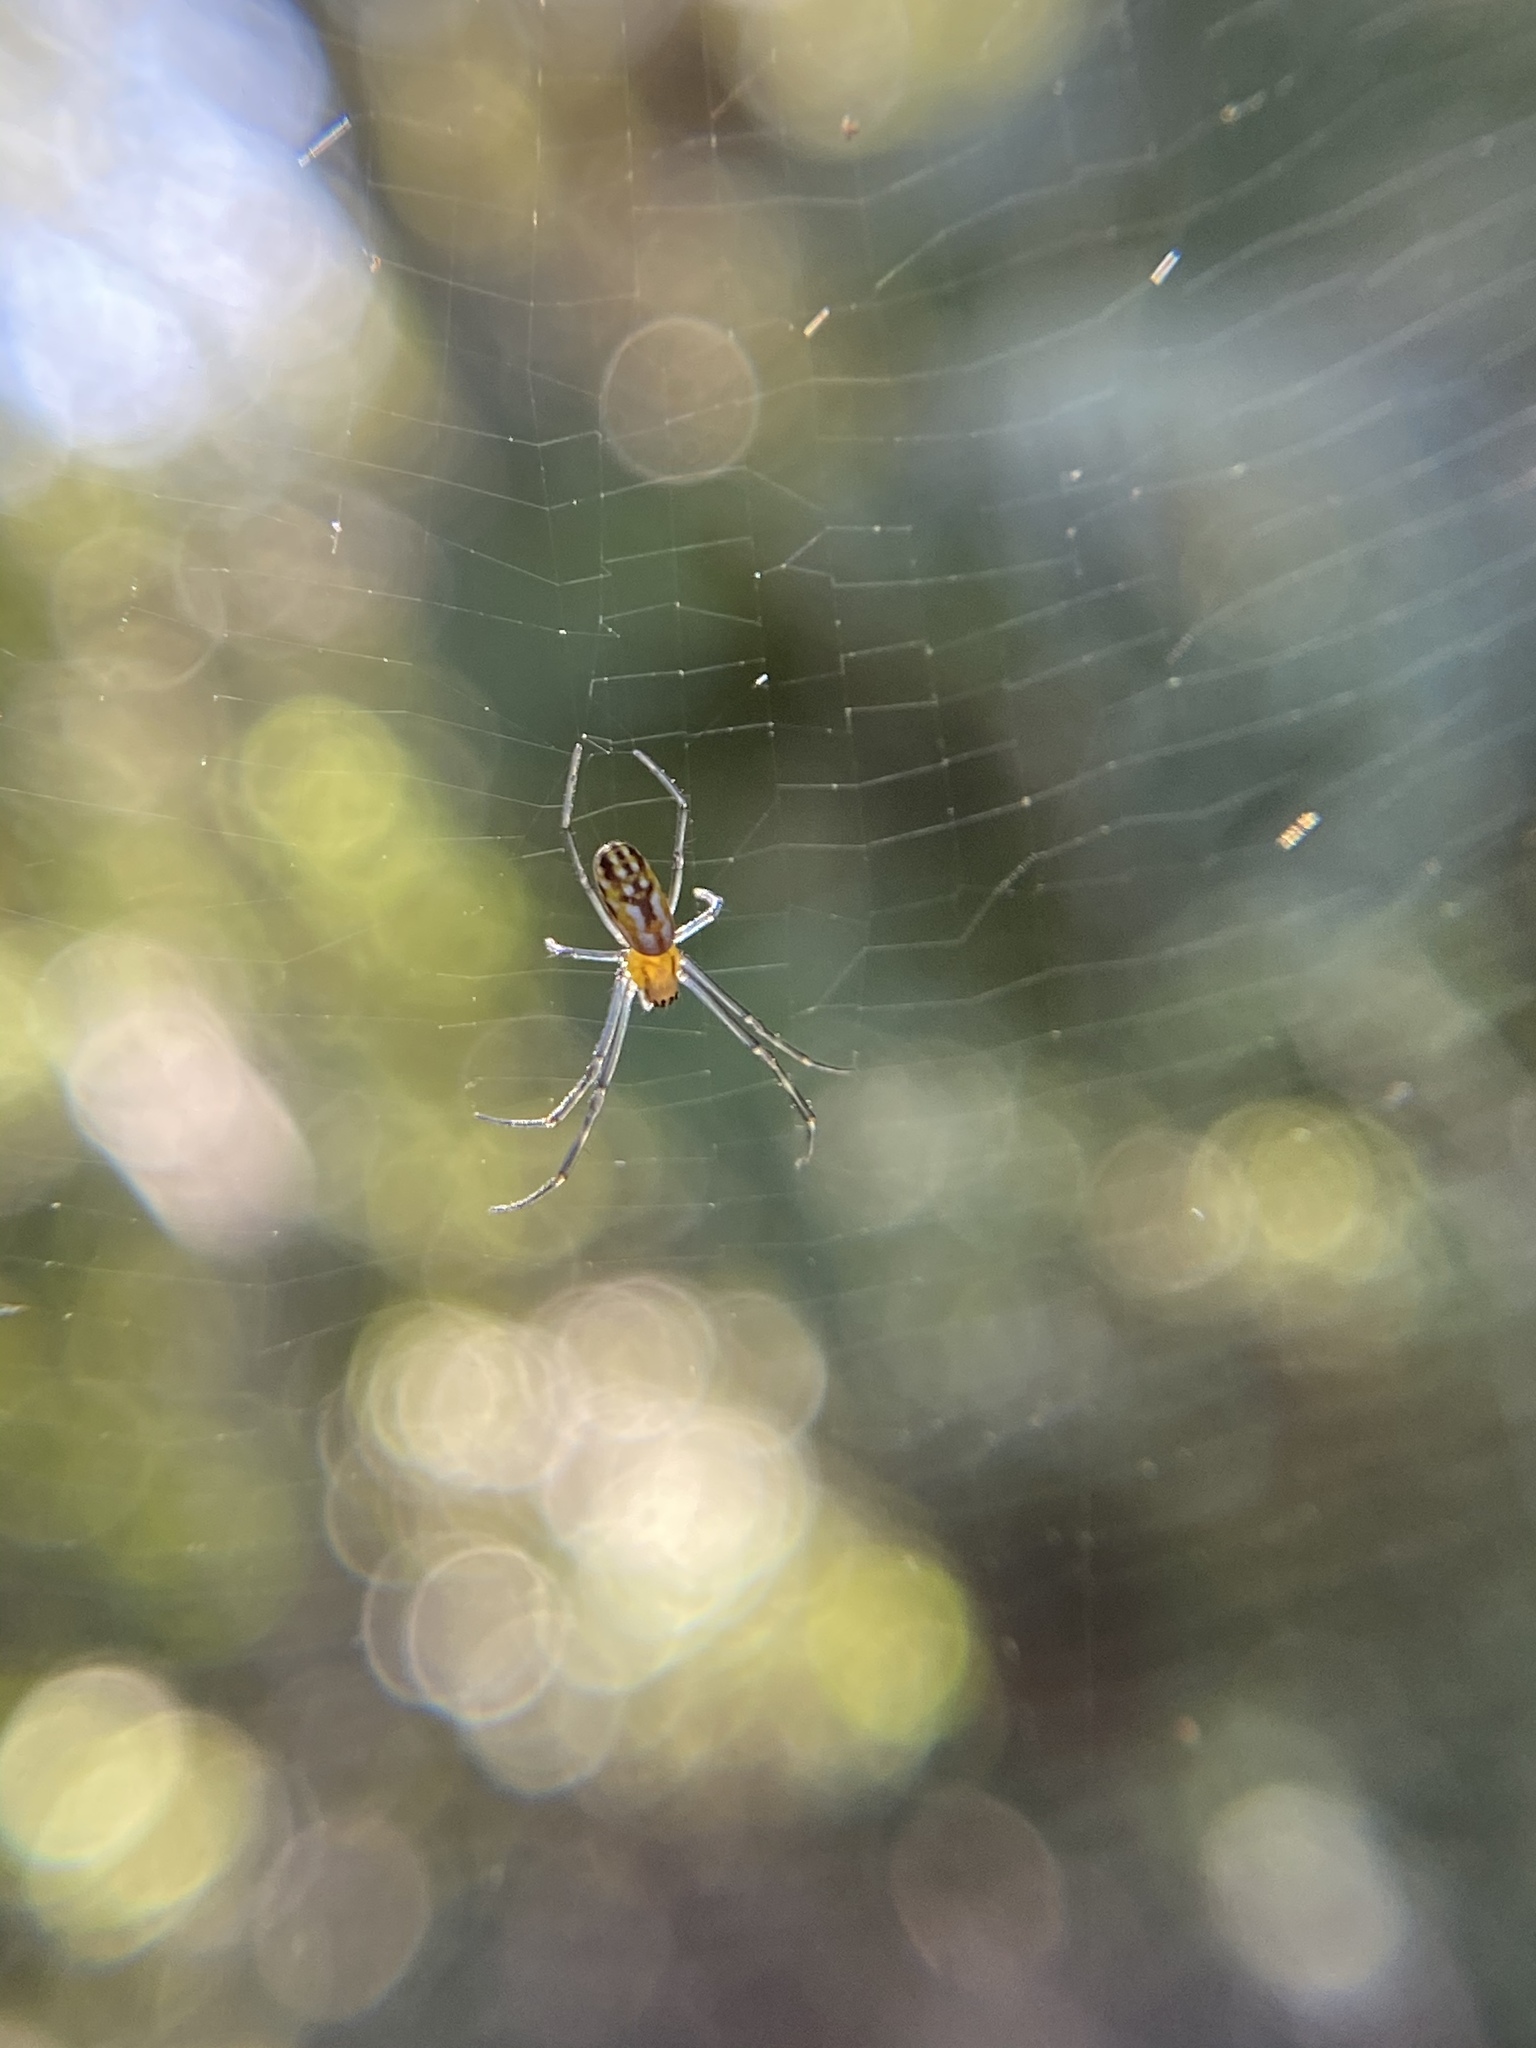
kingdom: Animalia
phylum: Arthropoda
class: Arachnida
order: Araneae
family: Araneidae
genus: Trichonephila
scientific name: Trichonephila clavipes
